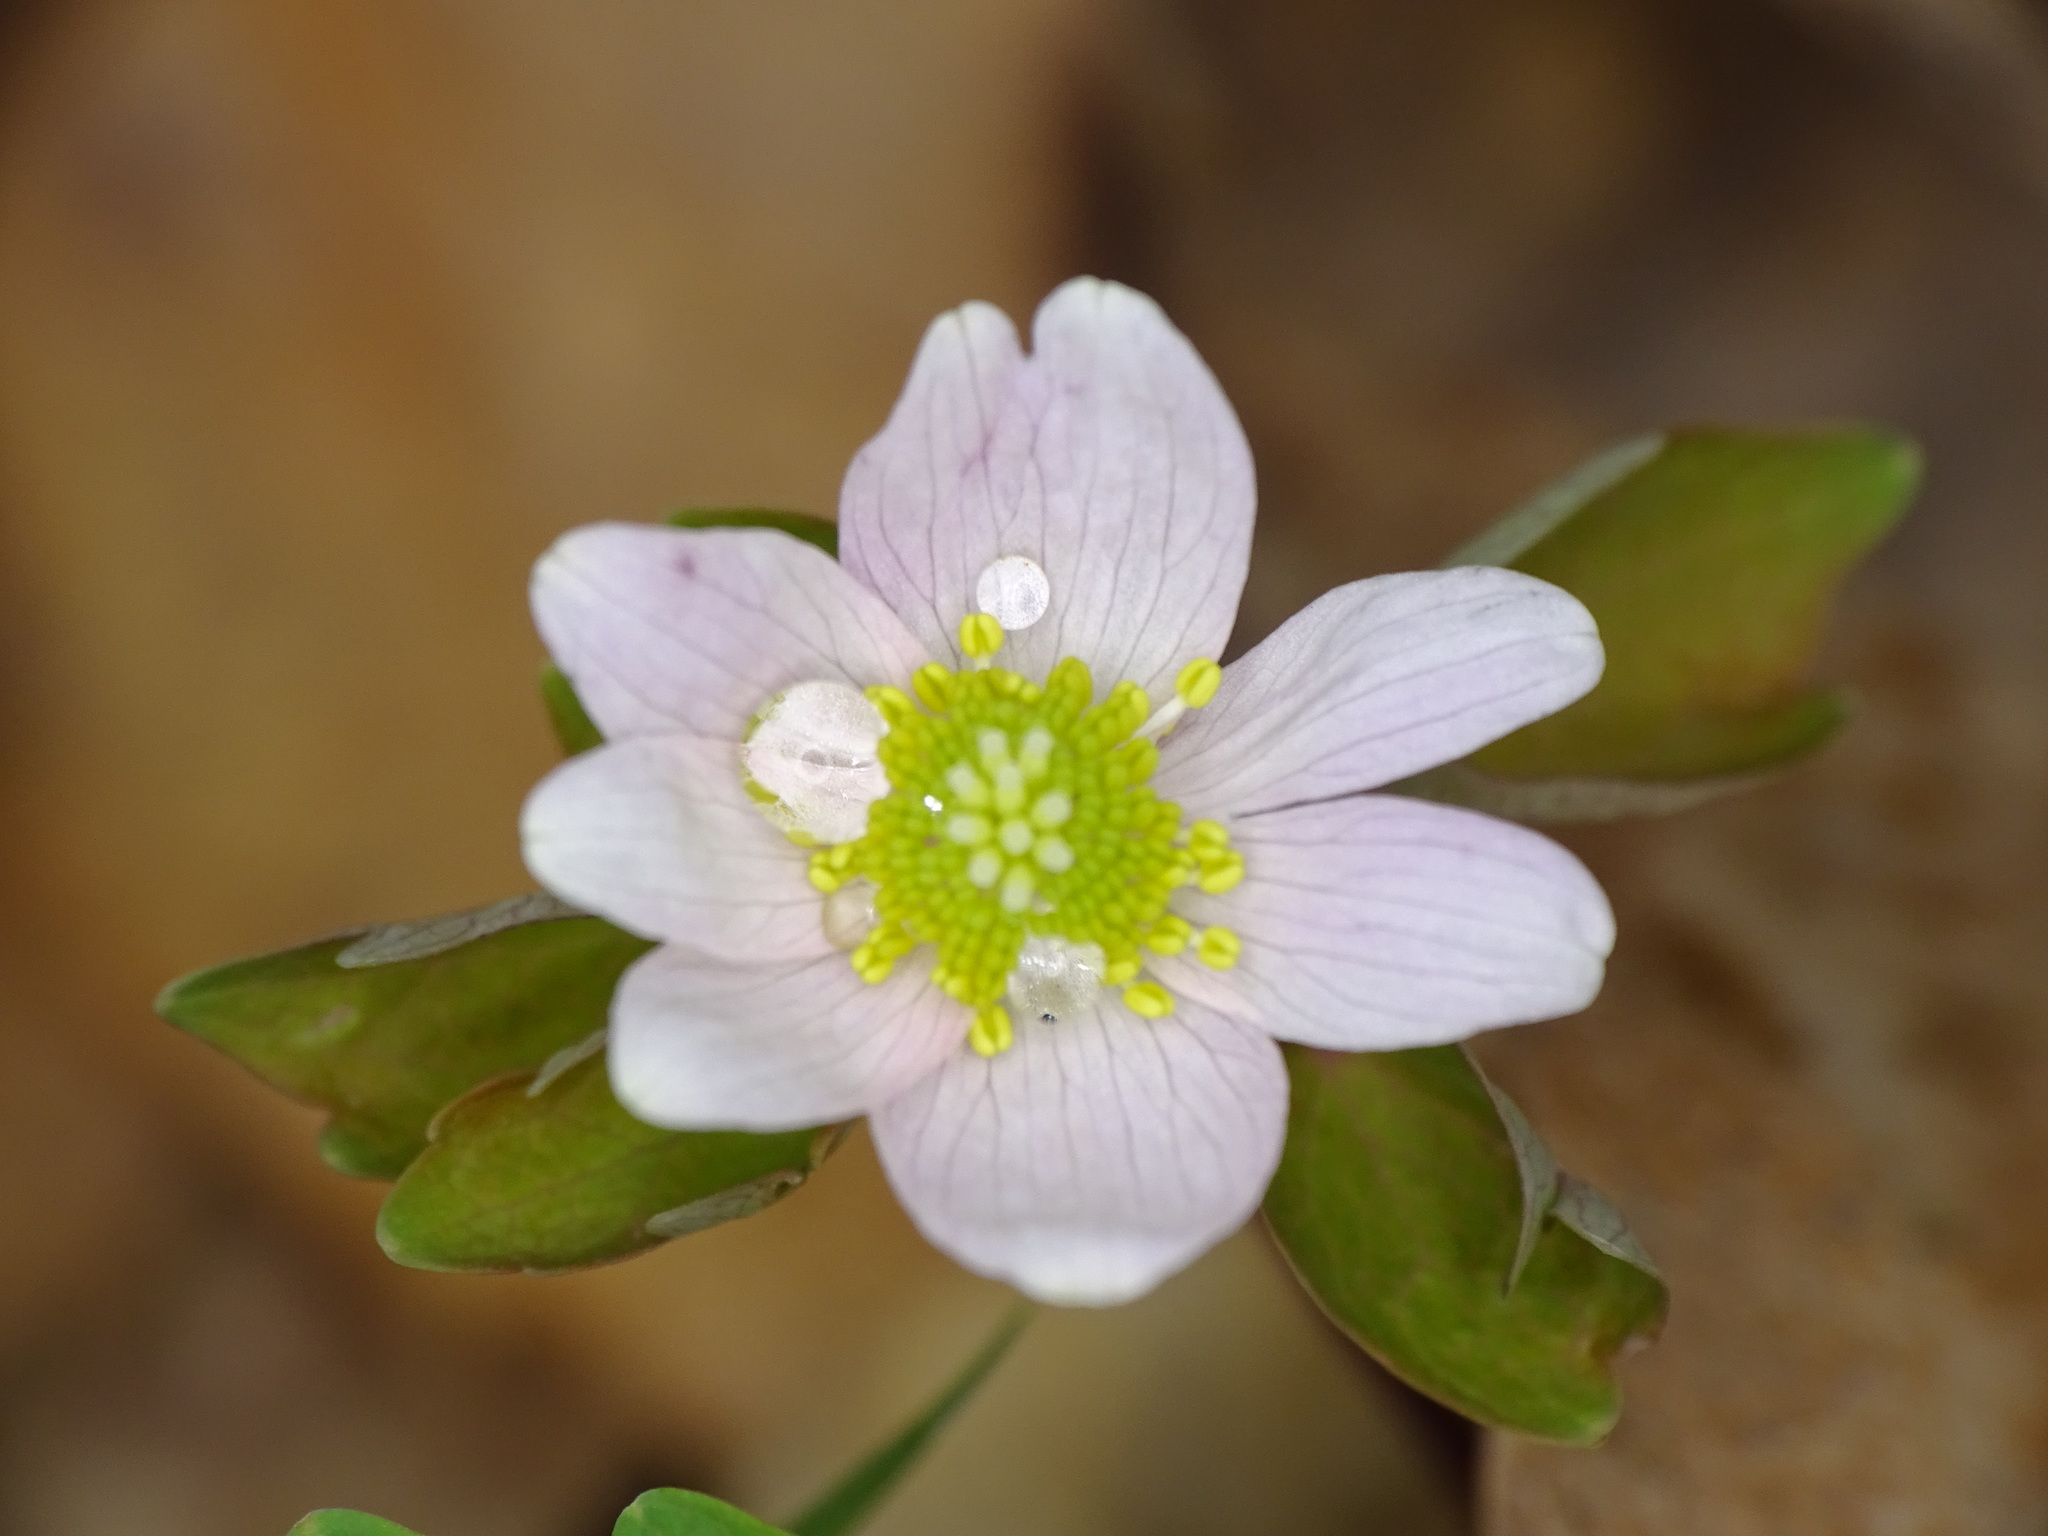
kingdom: Plantae
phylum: Tracheophyta
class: Magnoliopsida
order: Ranunculales
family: Ranunculaceae
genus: Thalictrum
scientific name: Thalictrum thalictroides
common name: Rue-anemone
